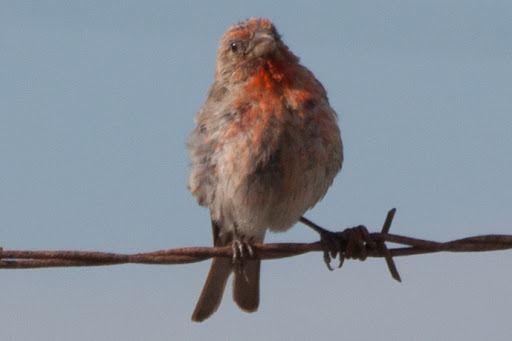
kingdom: Animalia
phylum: Chordata
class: Aves
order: Passeriformes
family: Fringillidae
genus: Haemorhous
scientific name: Haemorhous mexicanus
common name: House finch
